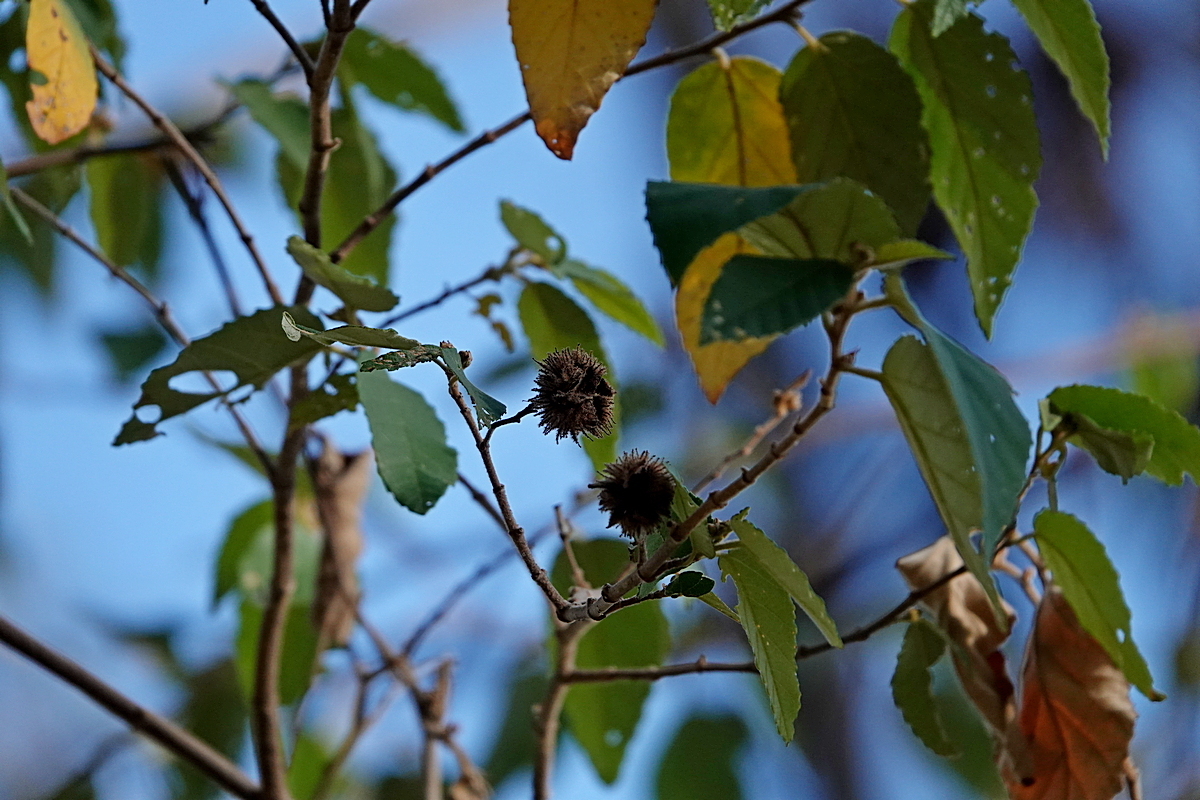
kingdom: Plantae
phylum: Tracheophyta
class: Magnoliopsida
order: Malvales
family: Malvaceae
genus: Androcalva
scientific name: Androcalva rossii
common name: Native hemp
